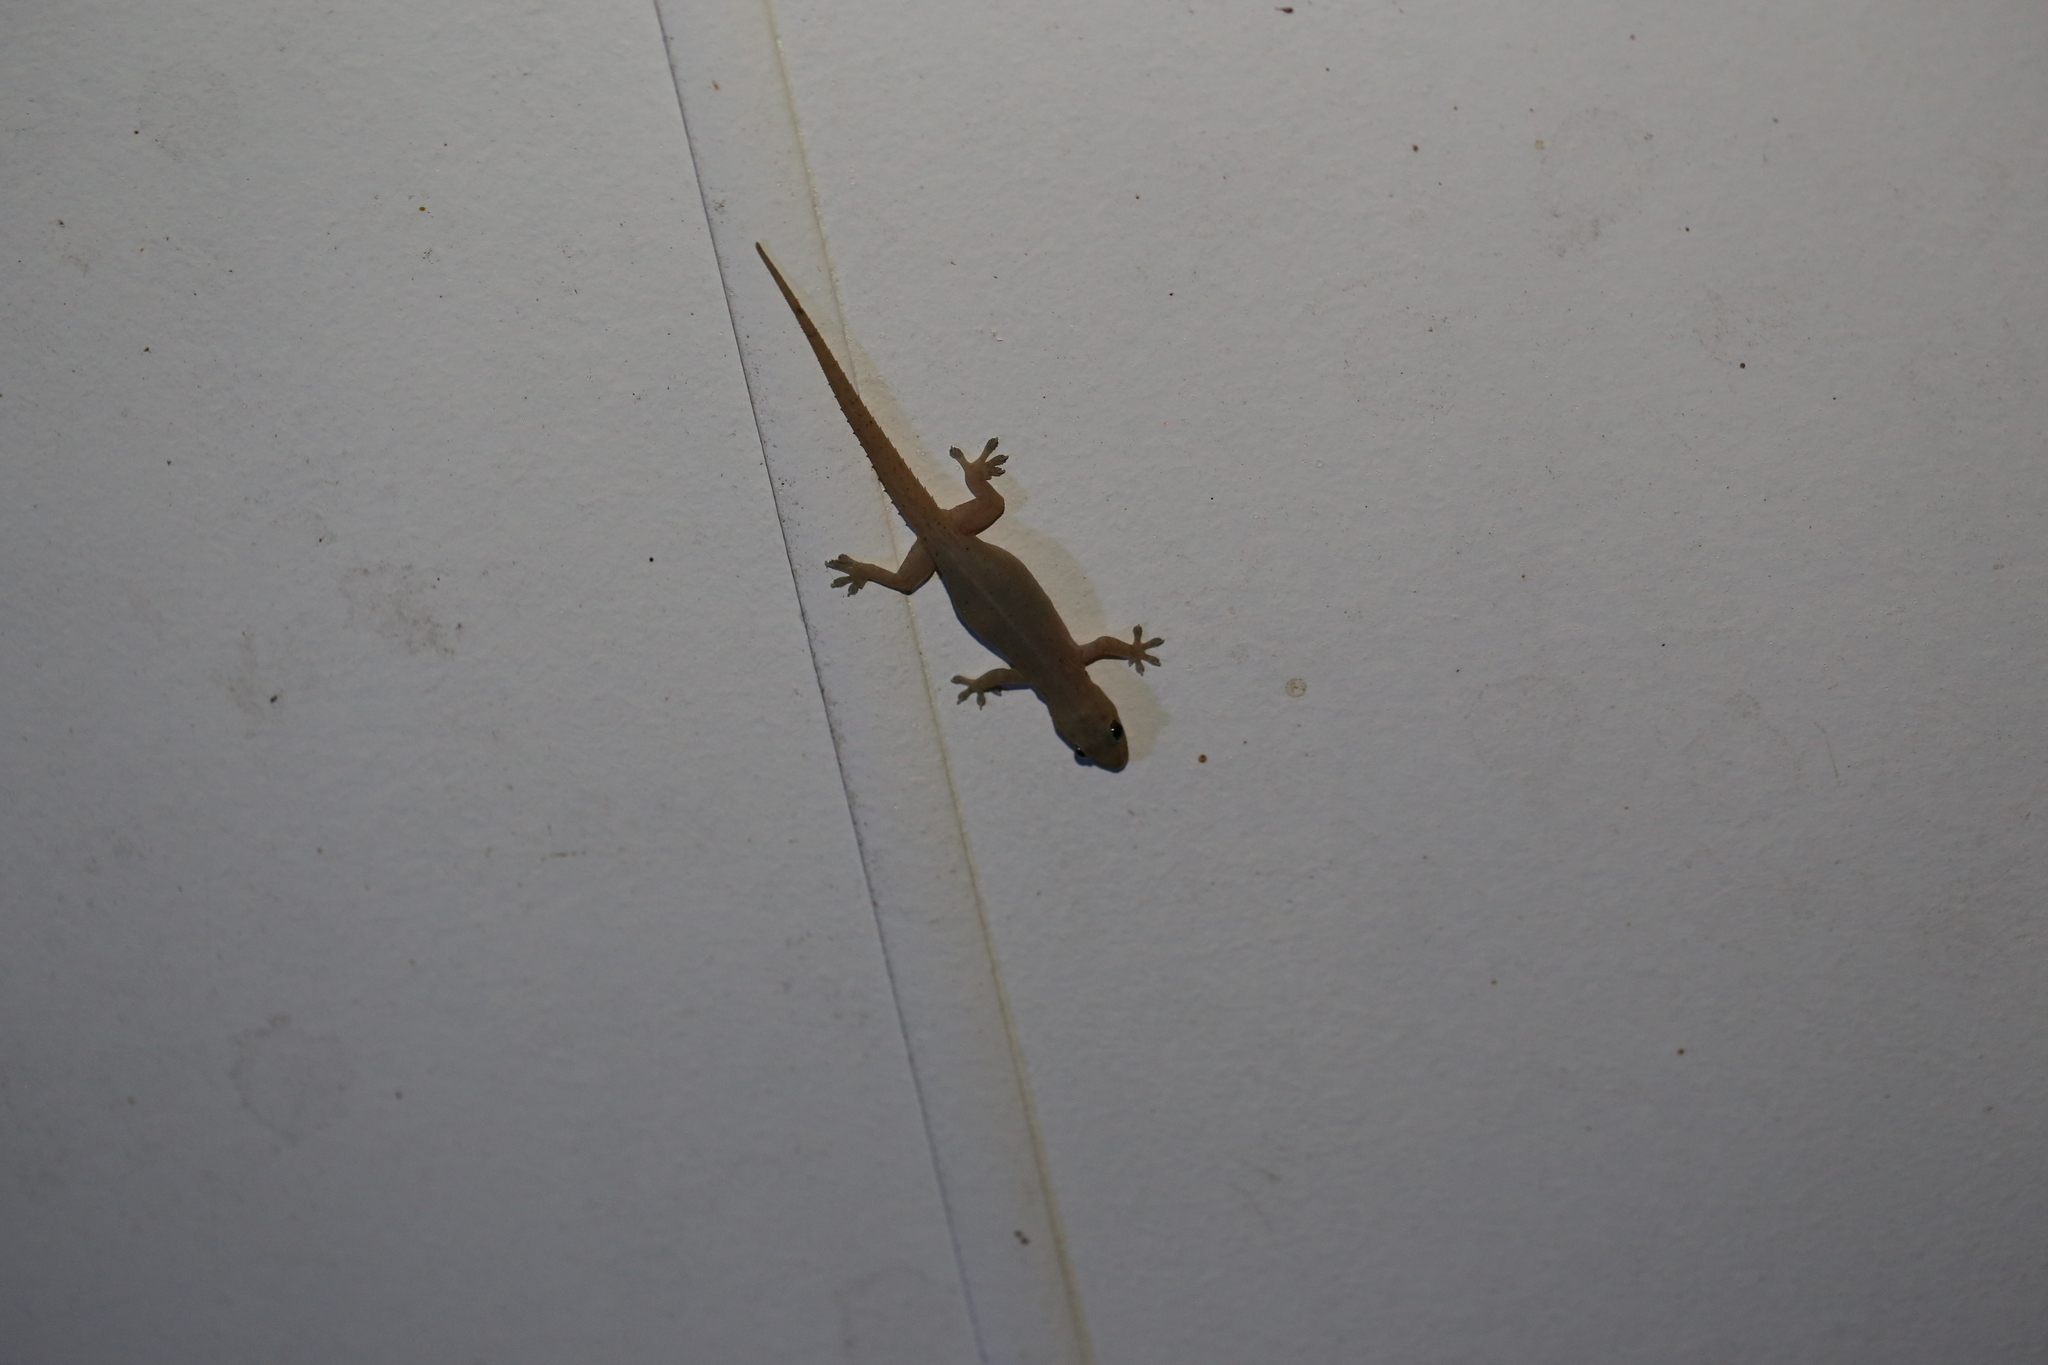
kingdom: Animalia
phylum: Chordata
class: Squamata
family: Gekkonidae
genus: Hemidactylus
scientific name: Hemidactylus frenatus
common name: Common house gecko
